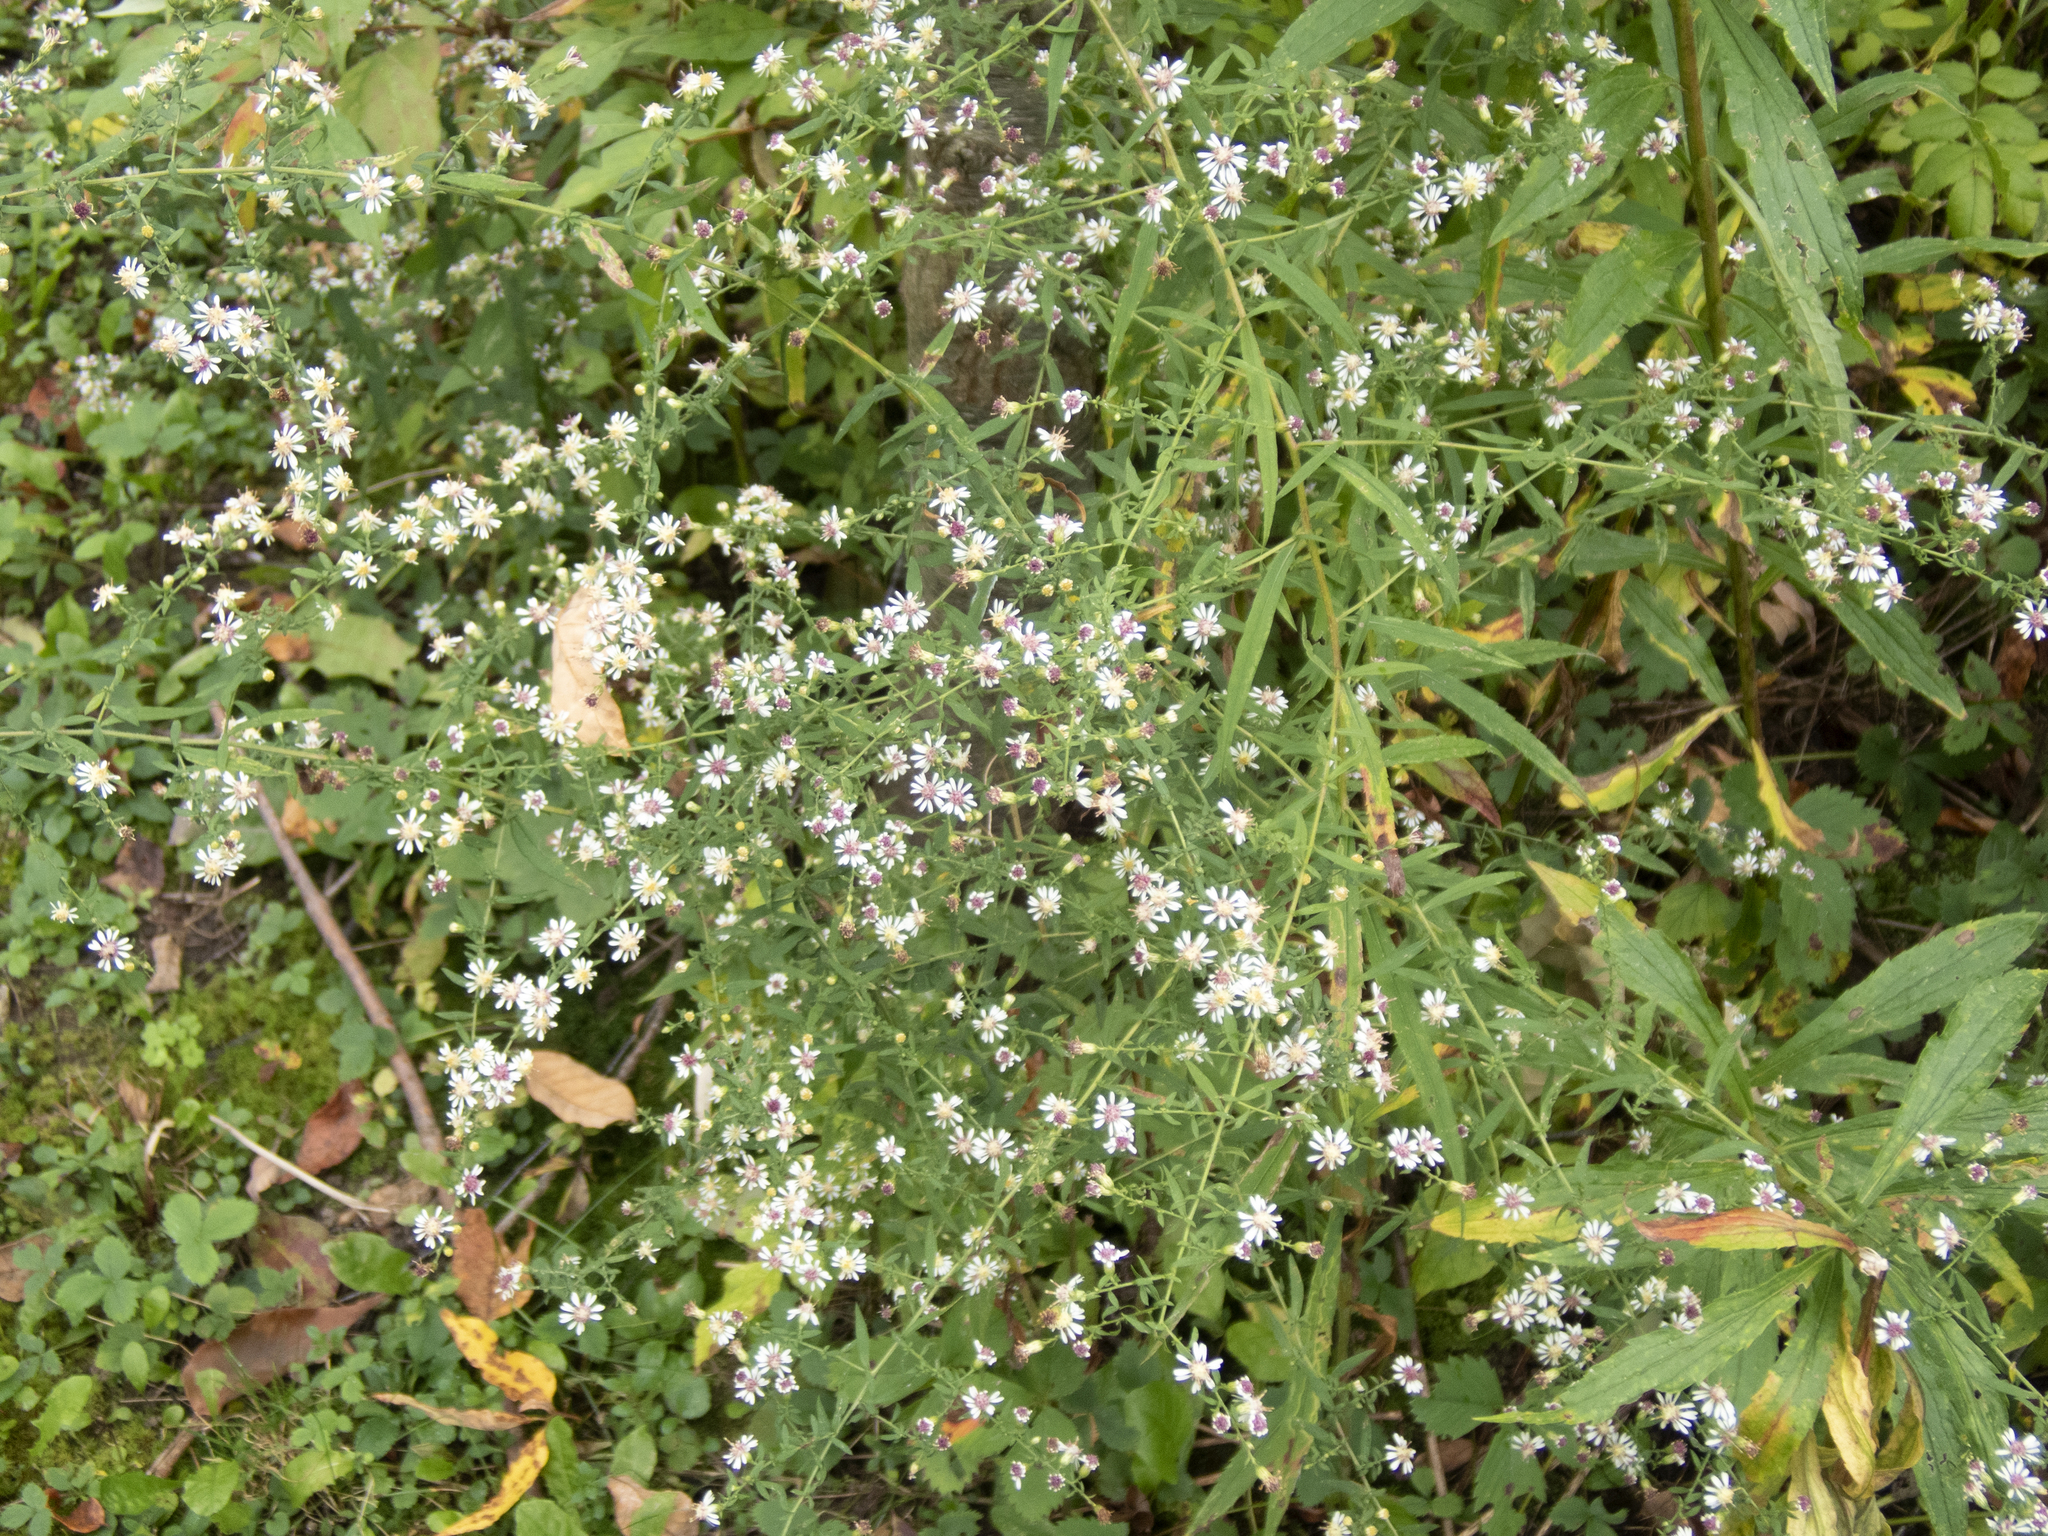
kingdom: Plantae
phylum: Tracheophyta
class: Magnoliopsida
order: Asterales
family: Asteraceae
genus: Symphyotrichum
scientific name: Symphyotrichum lateriflorum
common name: Calico aster
